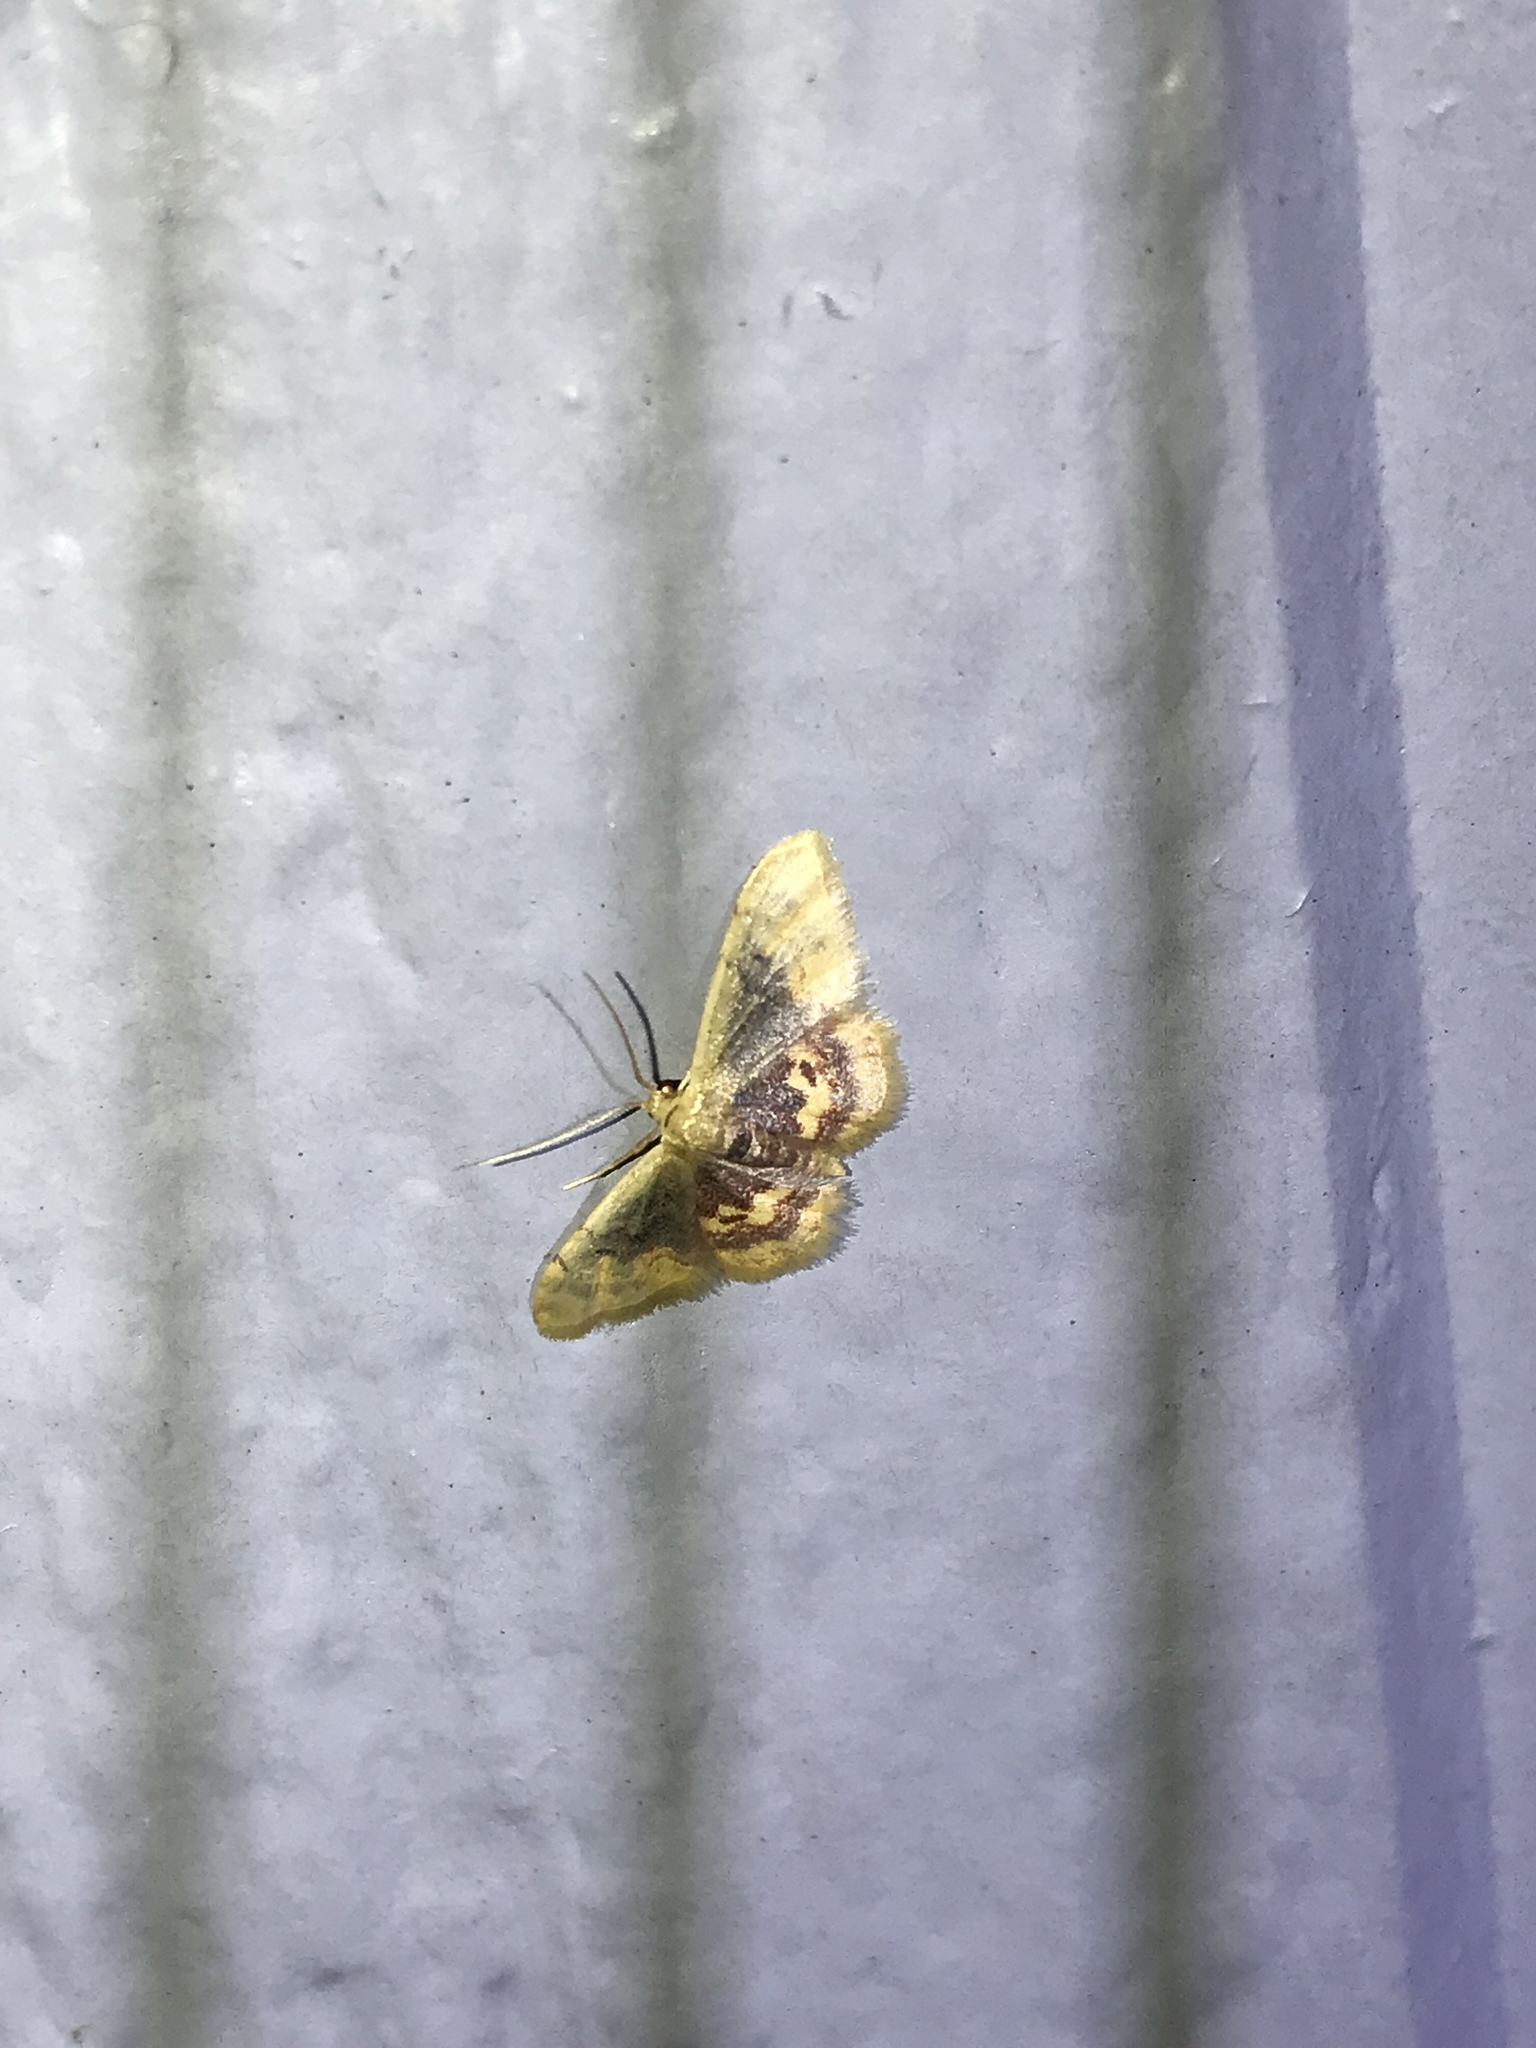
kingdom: Animalia
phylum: Arthropoda
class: Insecta
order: Lepidoptera
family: Geometridae
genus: Idaea
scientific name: Idaea scintillularia
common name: Diminutive wave
